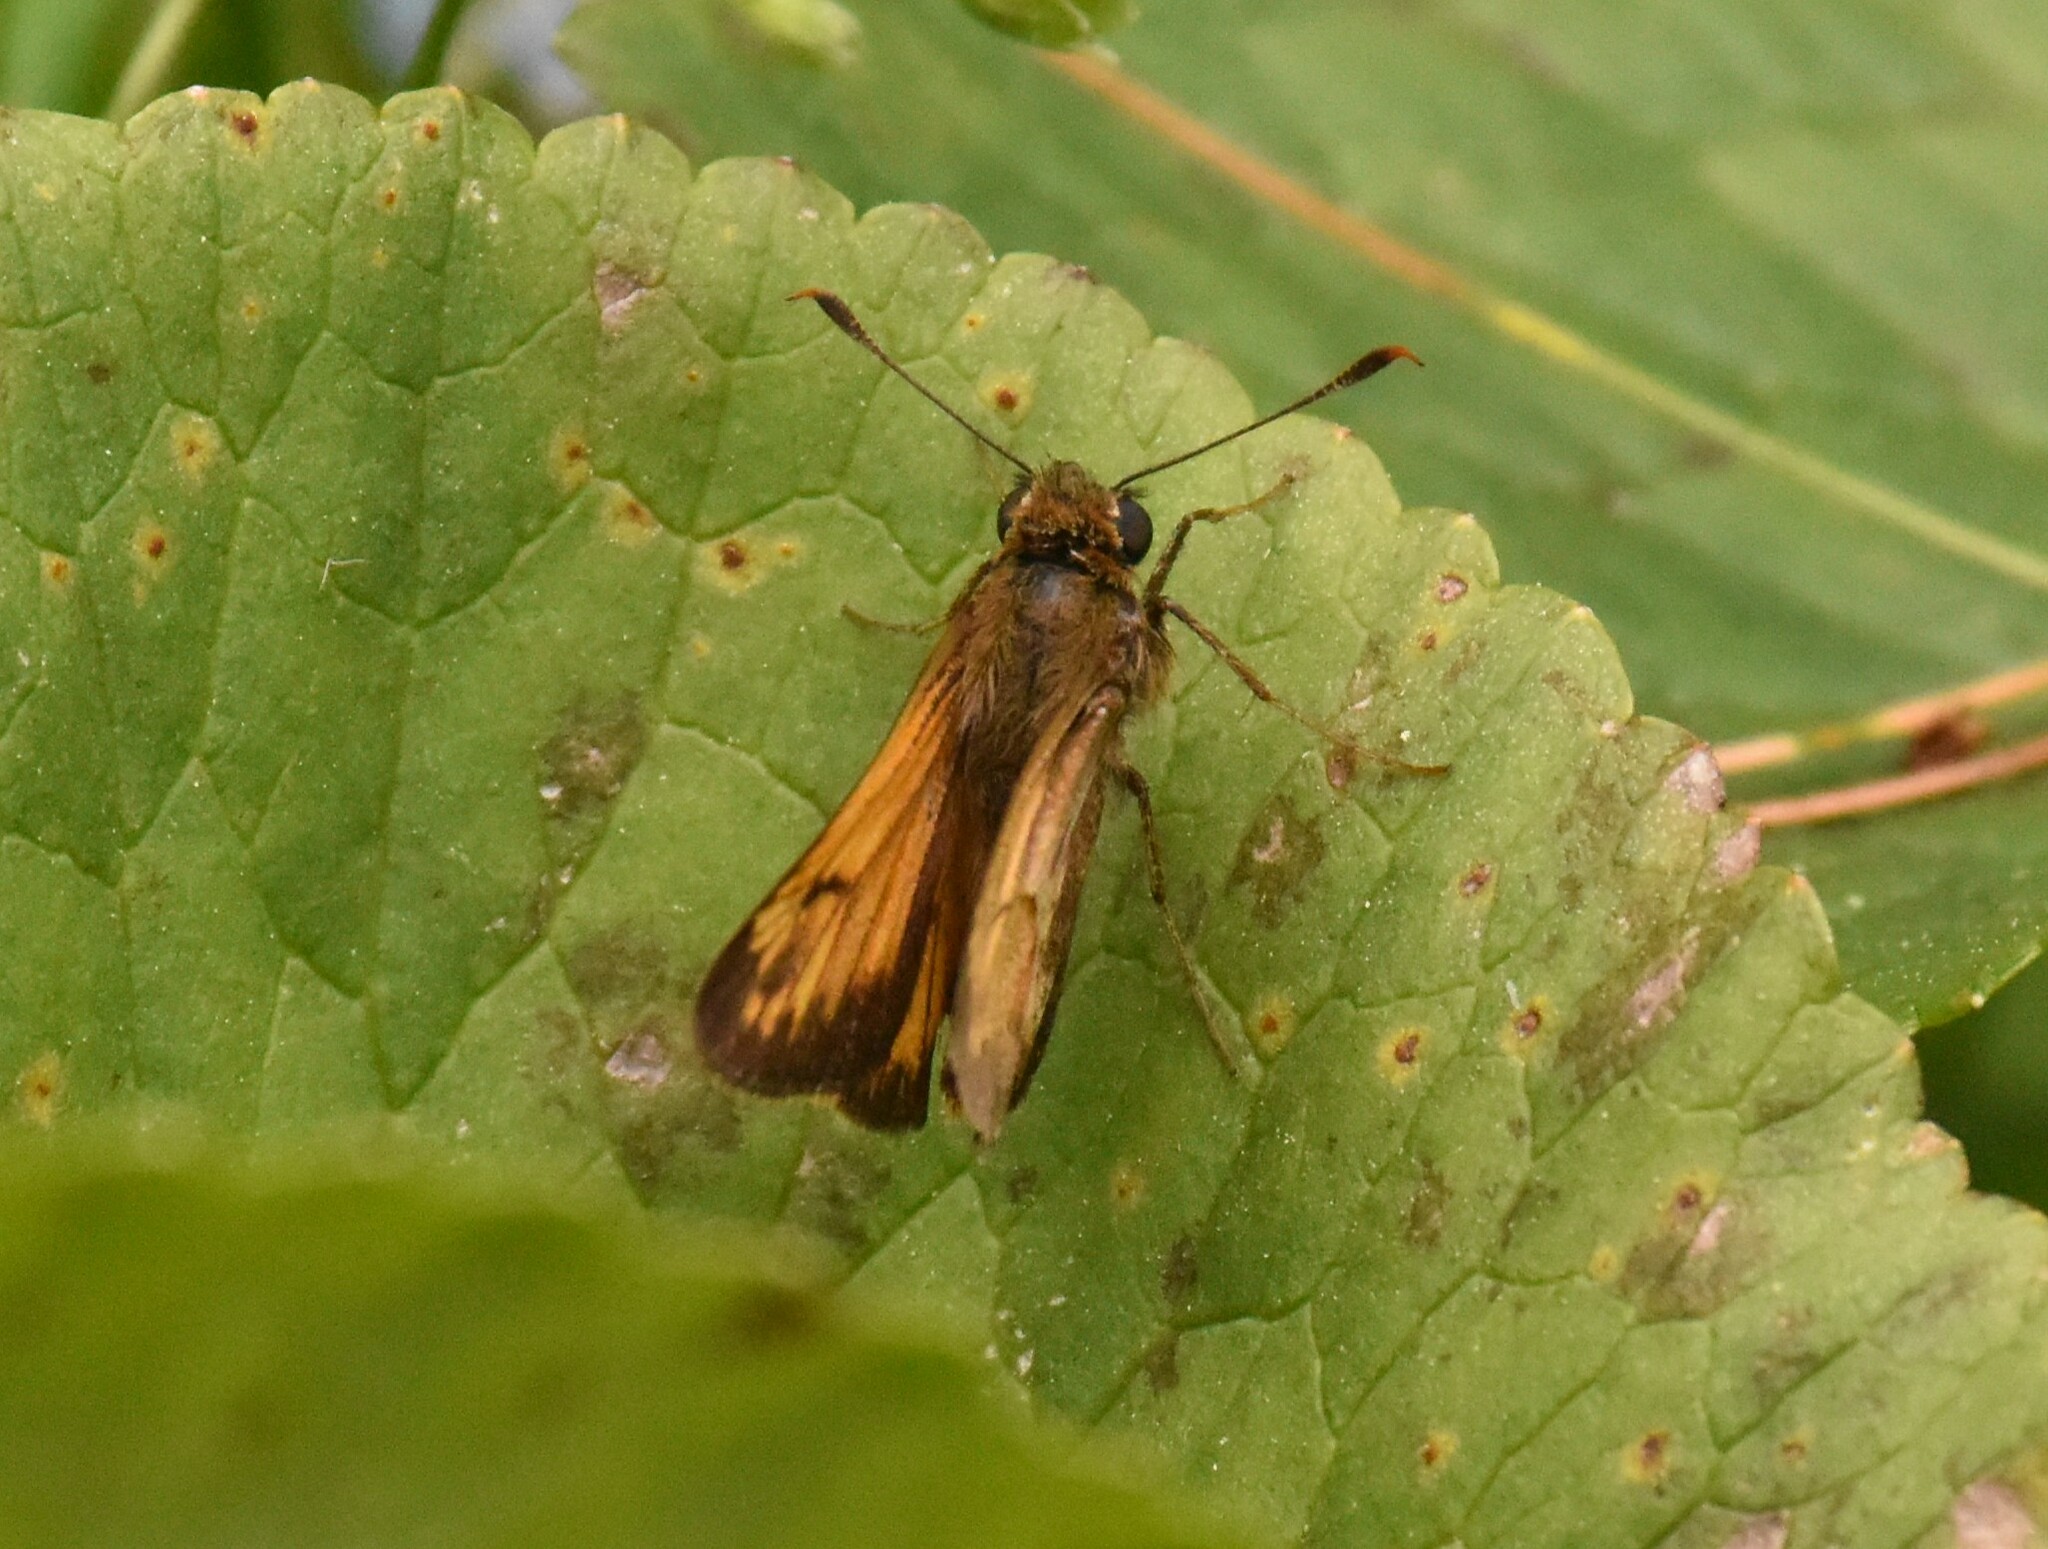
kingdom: Animalia
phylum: Arthropoda
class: Insecta
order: Lepidoptera
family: Hesperiidae
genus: Lon
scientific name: Lon hobomok
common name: Hobomok skipper
